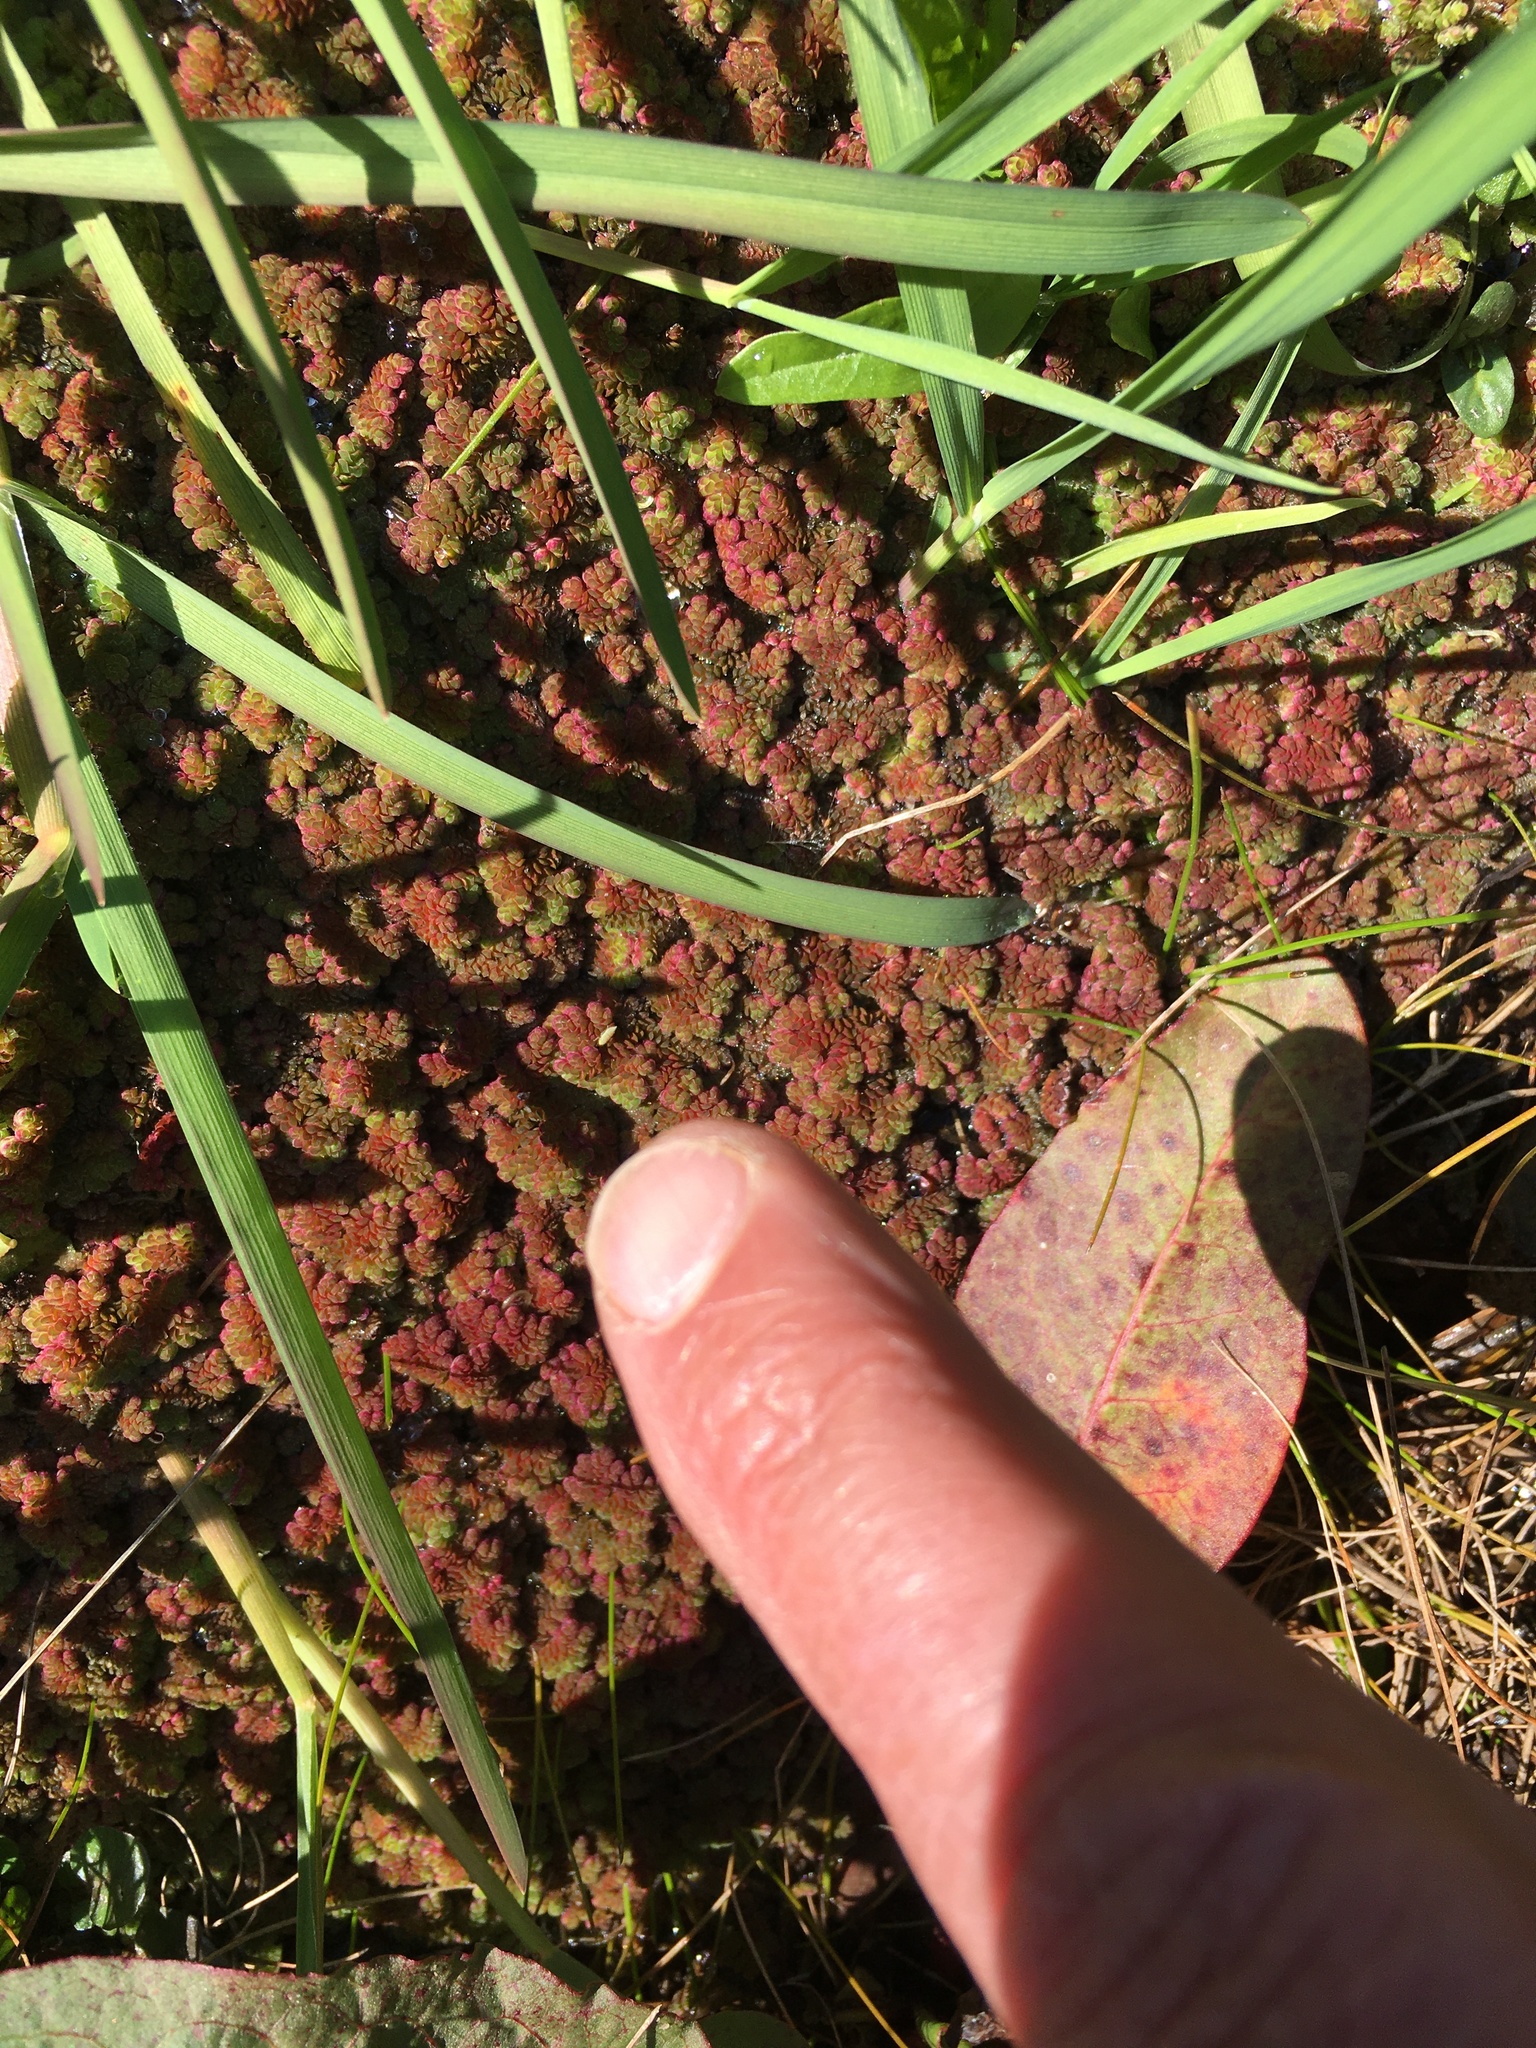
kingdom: Plantae
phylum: Tracheophyta
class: Polypodiopsida
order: Salviniales
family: Salviniaceae
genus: Azolla
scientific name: Azolla filiculoides
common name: Water fern
